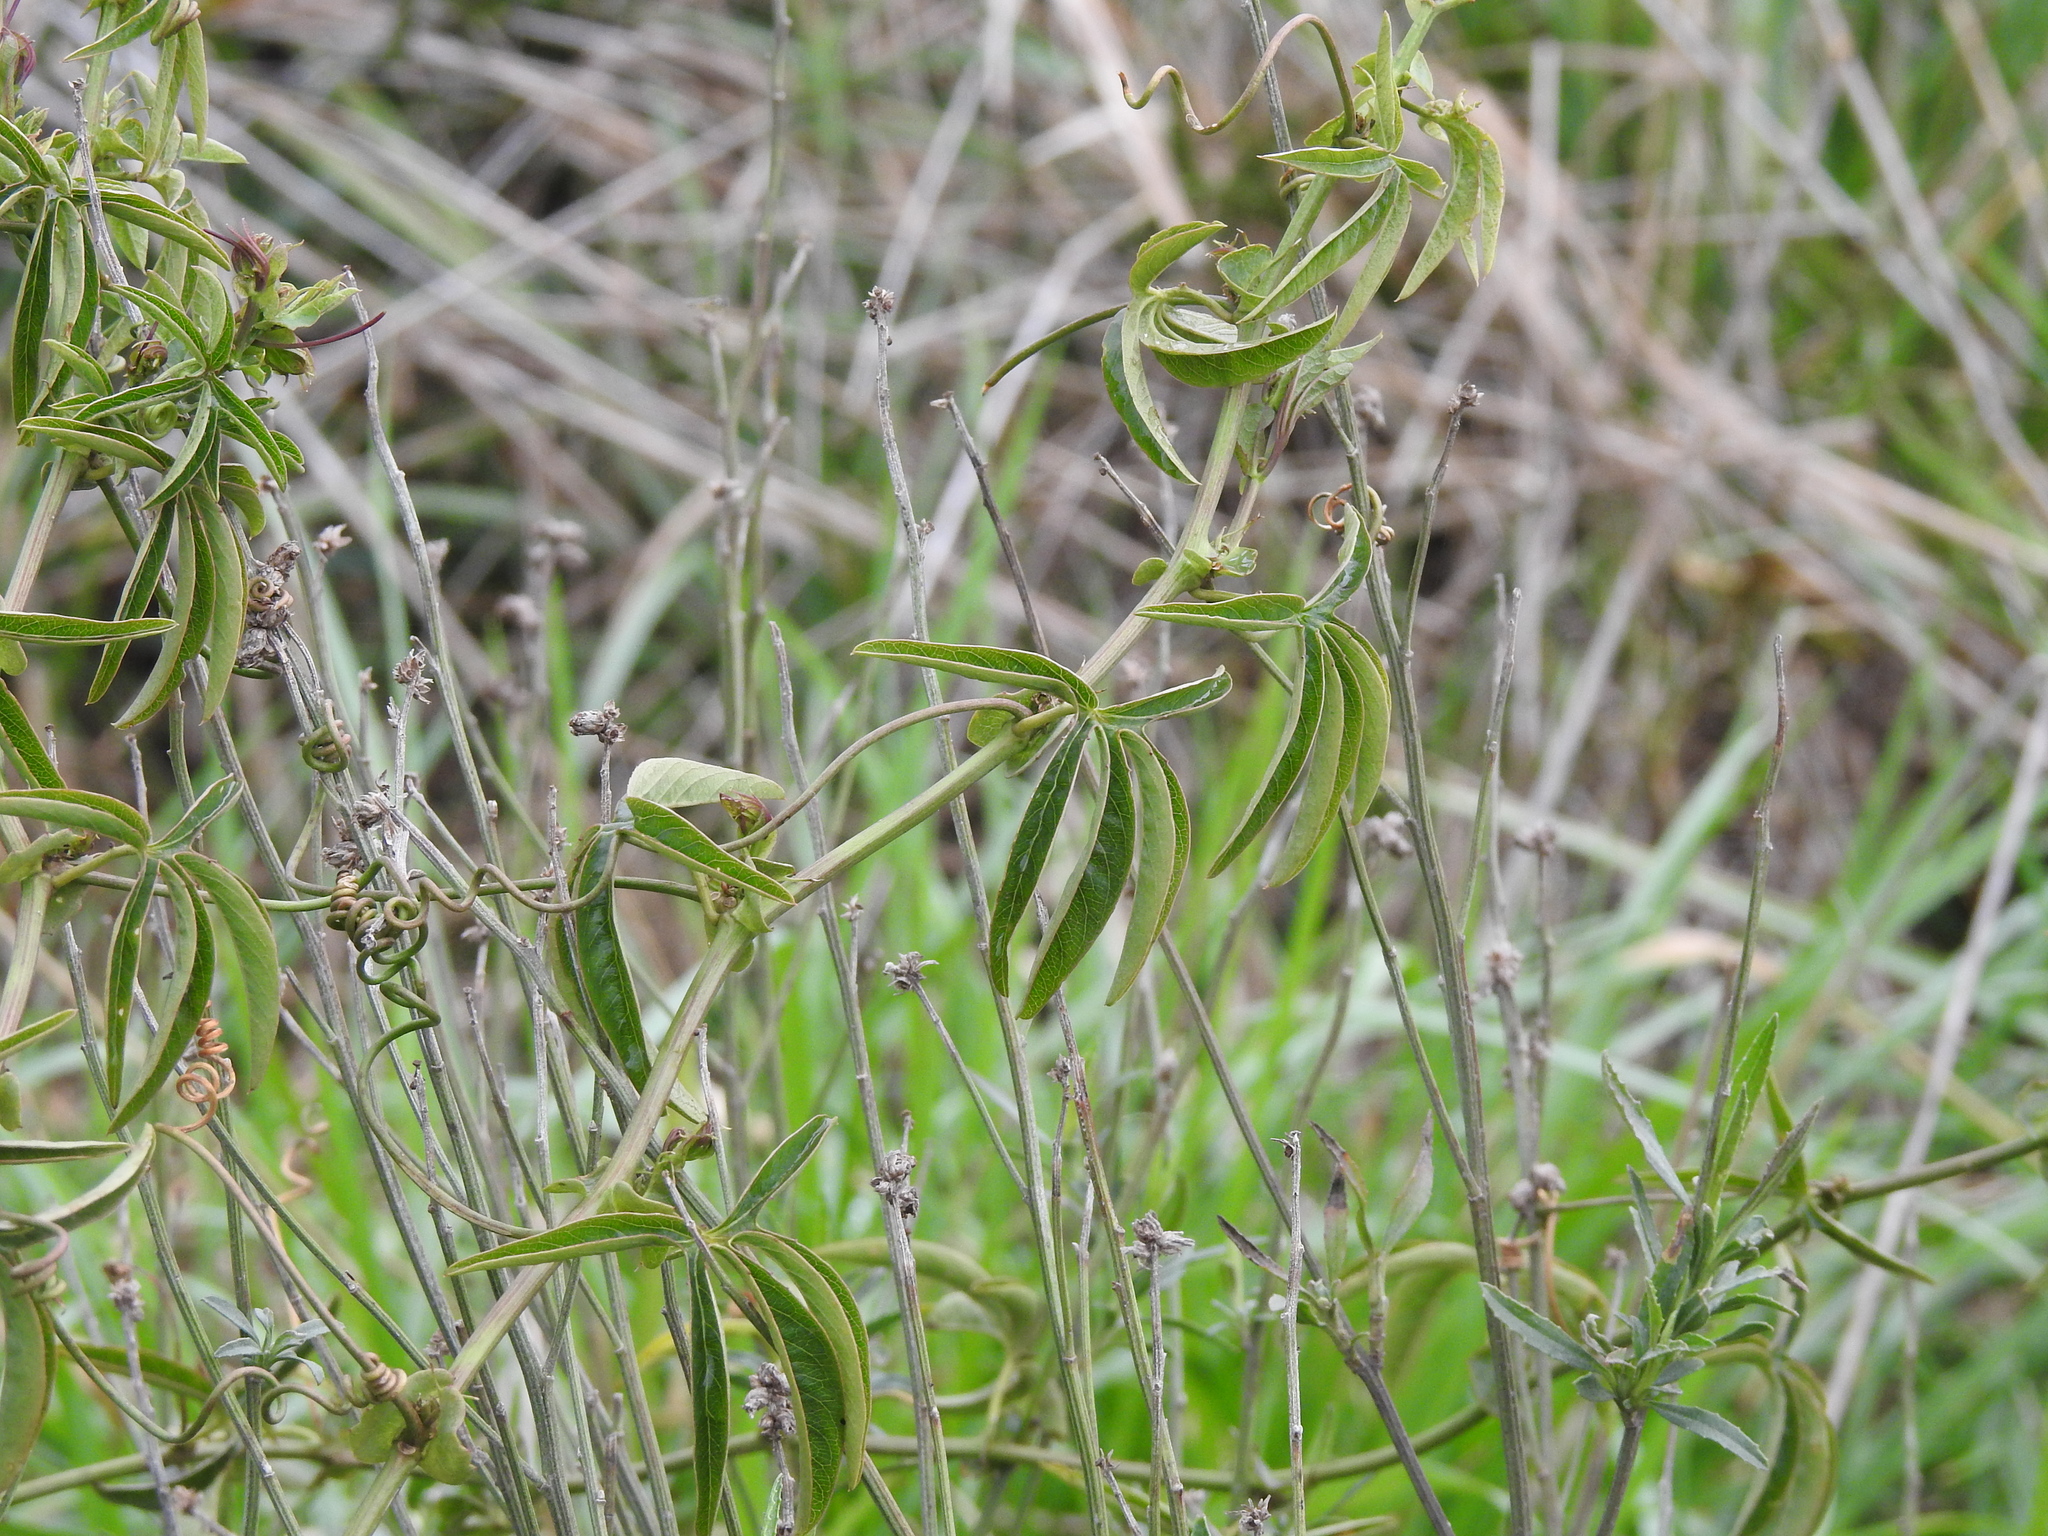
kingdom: Plantae
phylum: Tracheophyta
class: Magnoliopsida
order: Malpighiales
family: Passifloraceae
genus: Passiflora
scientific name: Passiflora caerulea
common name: Blue passionflower
